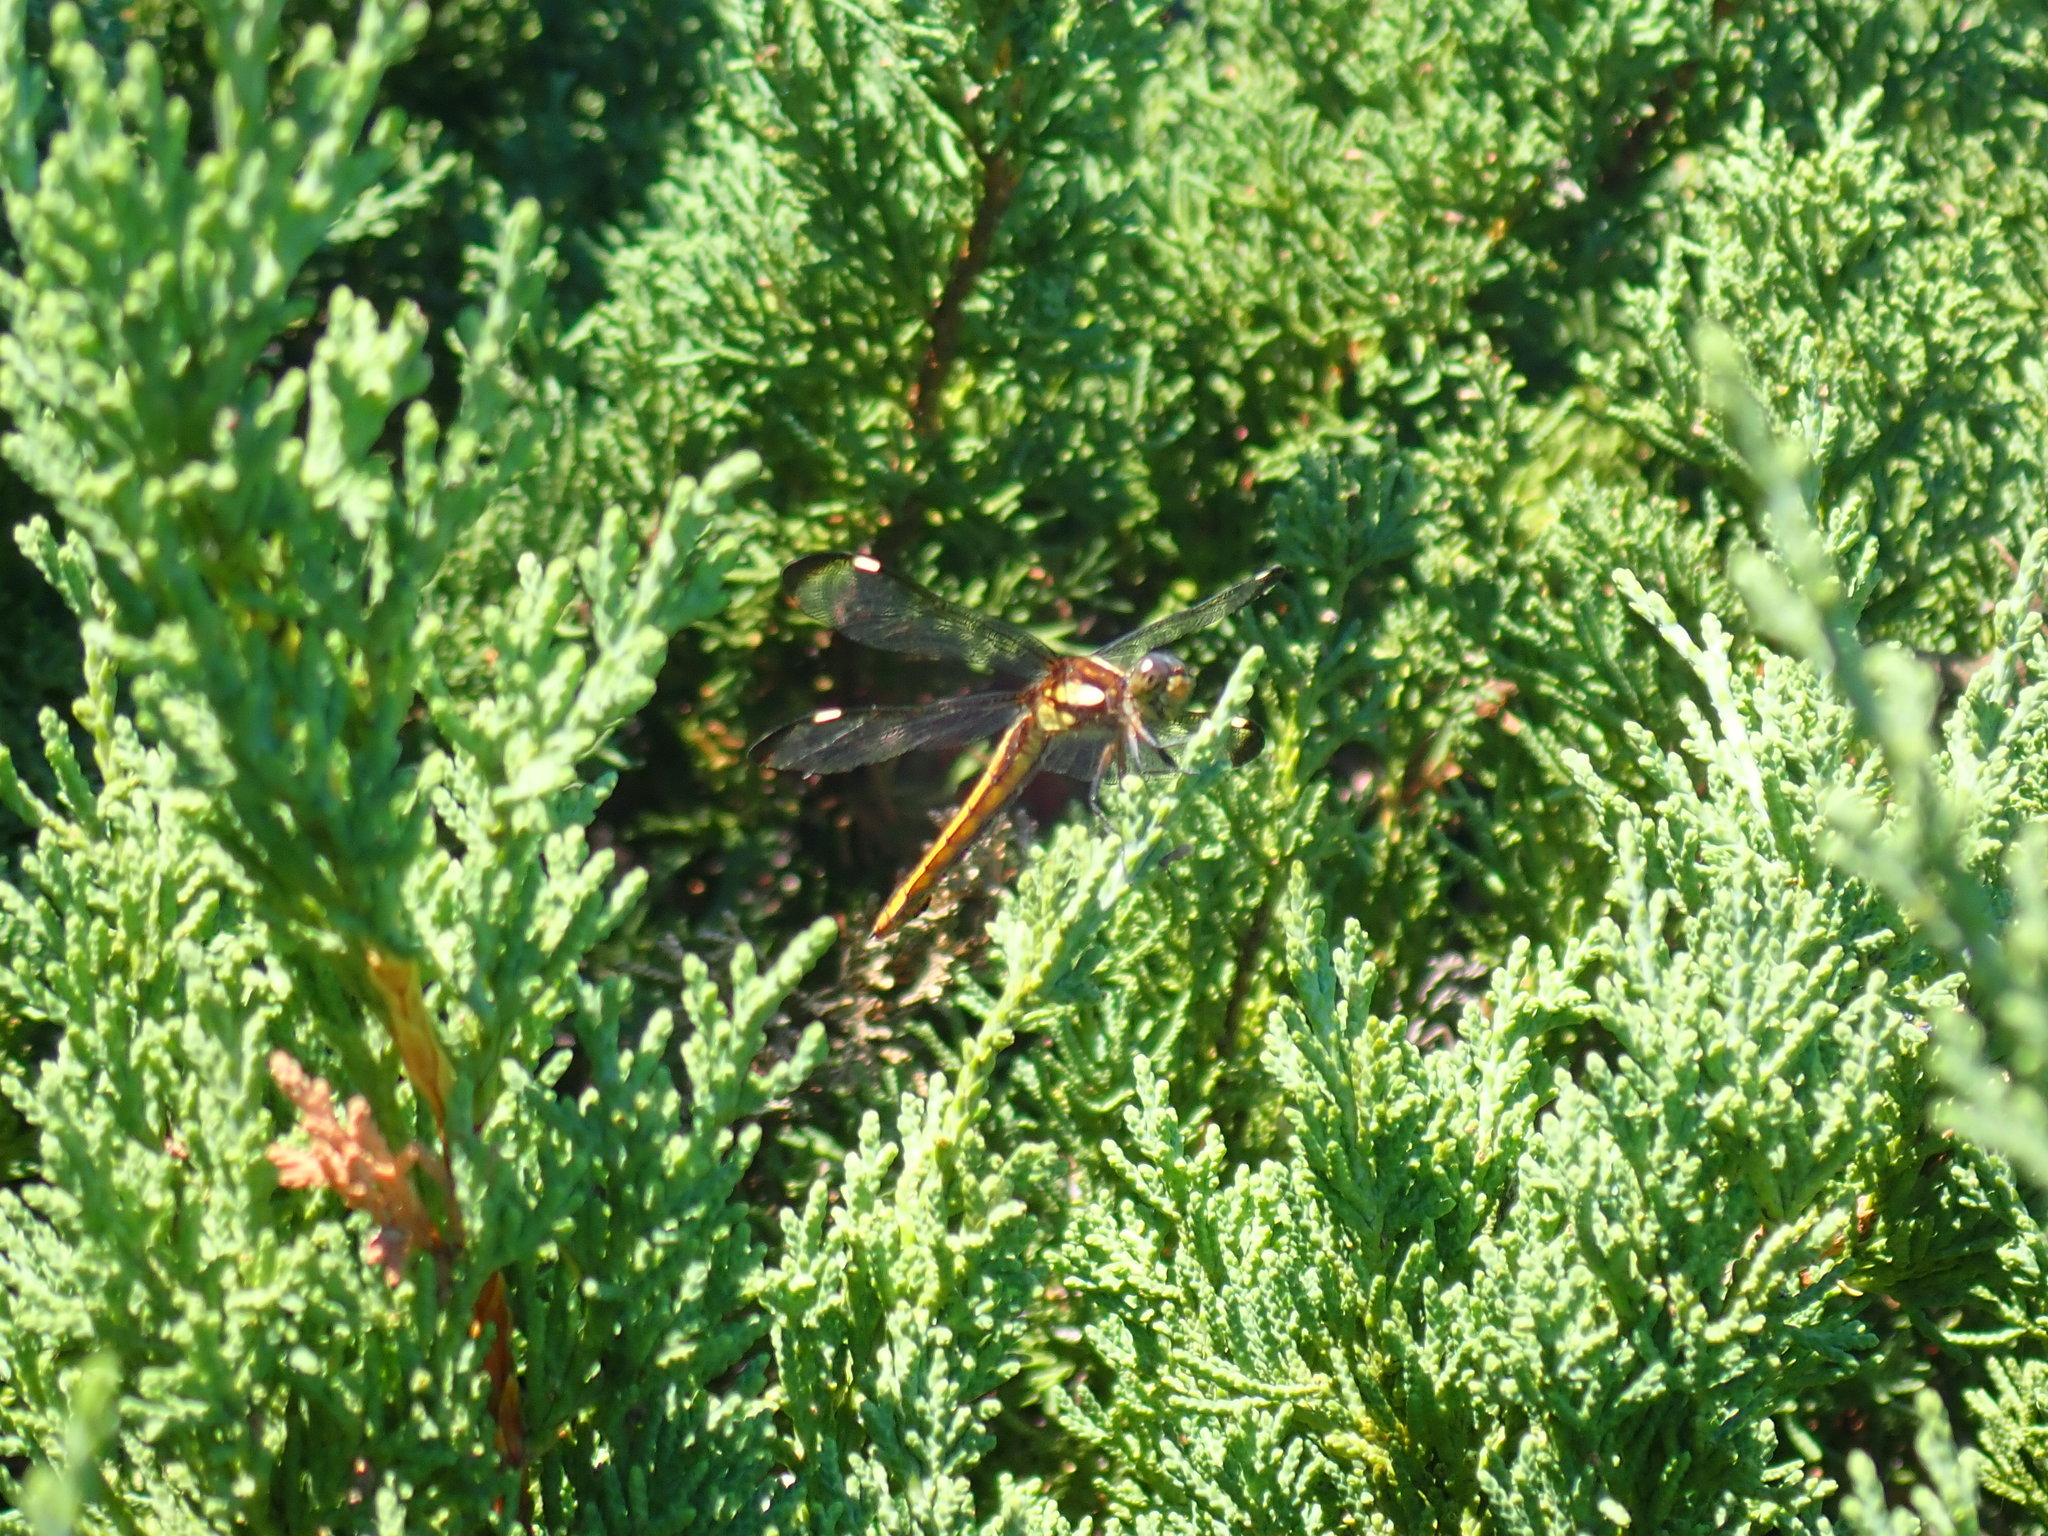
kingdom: Animalia
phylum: Arthropoda
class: Insecta
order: Odonata
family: Libellulidae
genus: Libellula
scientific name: Libellula cyanea
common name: Spangled skimmer
